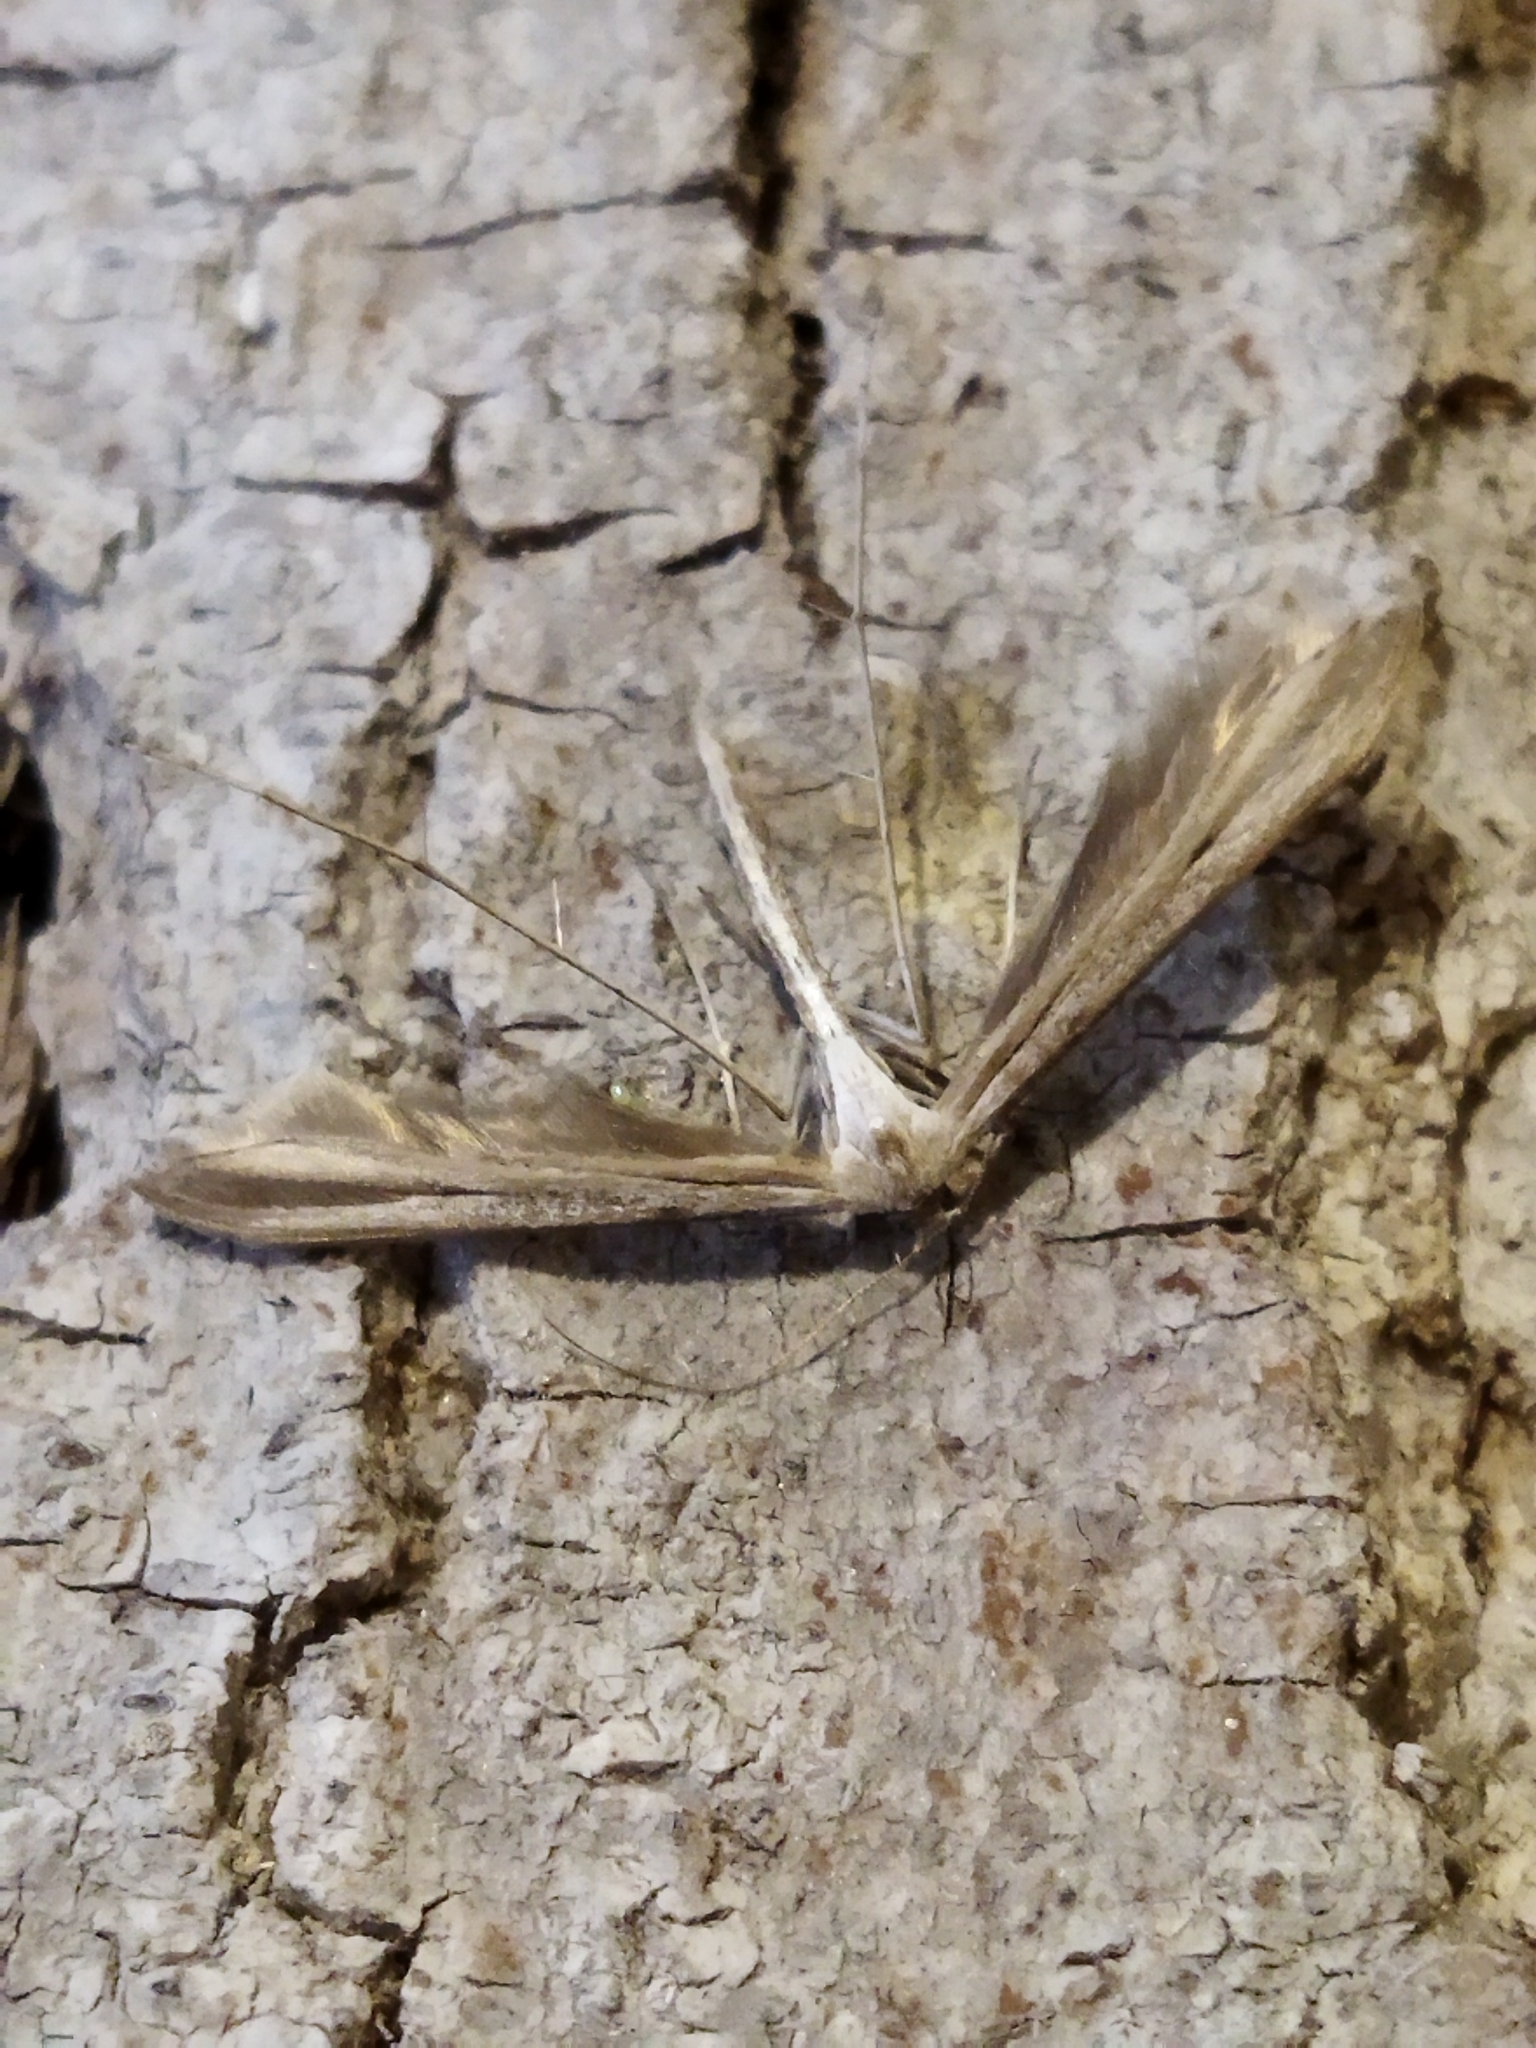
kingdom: Animalia
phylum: Arthropoda
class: Insecta
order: Lepidoptera
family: Pterophoridae
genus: Emmelina
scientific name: Emmelina monodactyla
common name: Common plume
